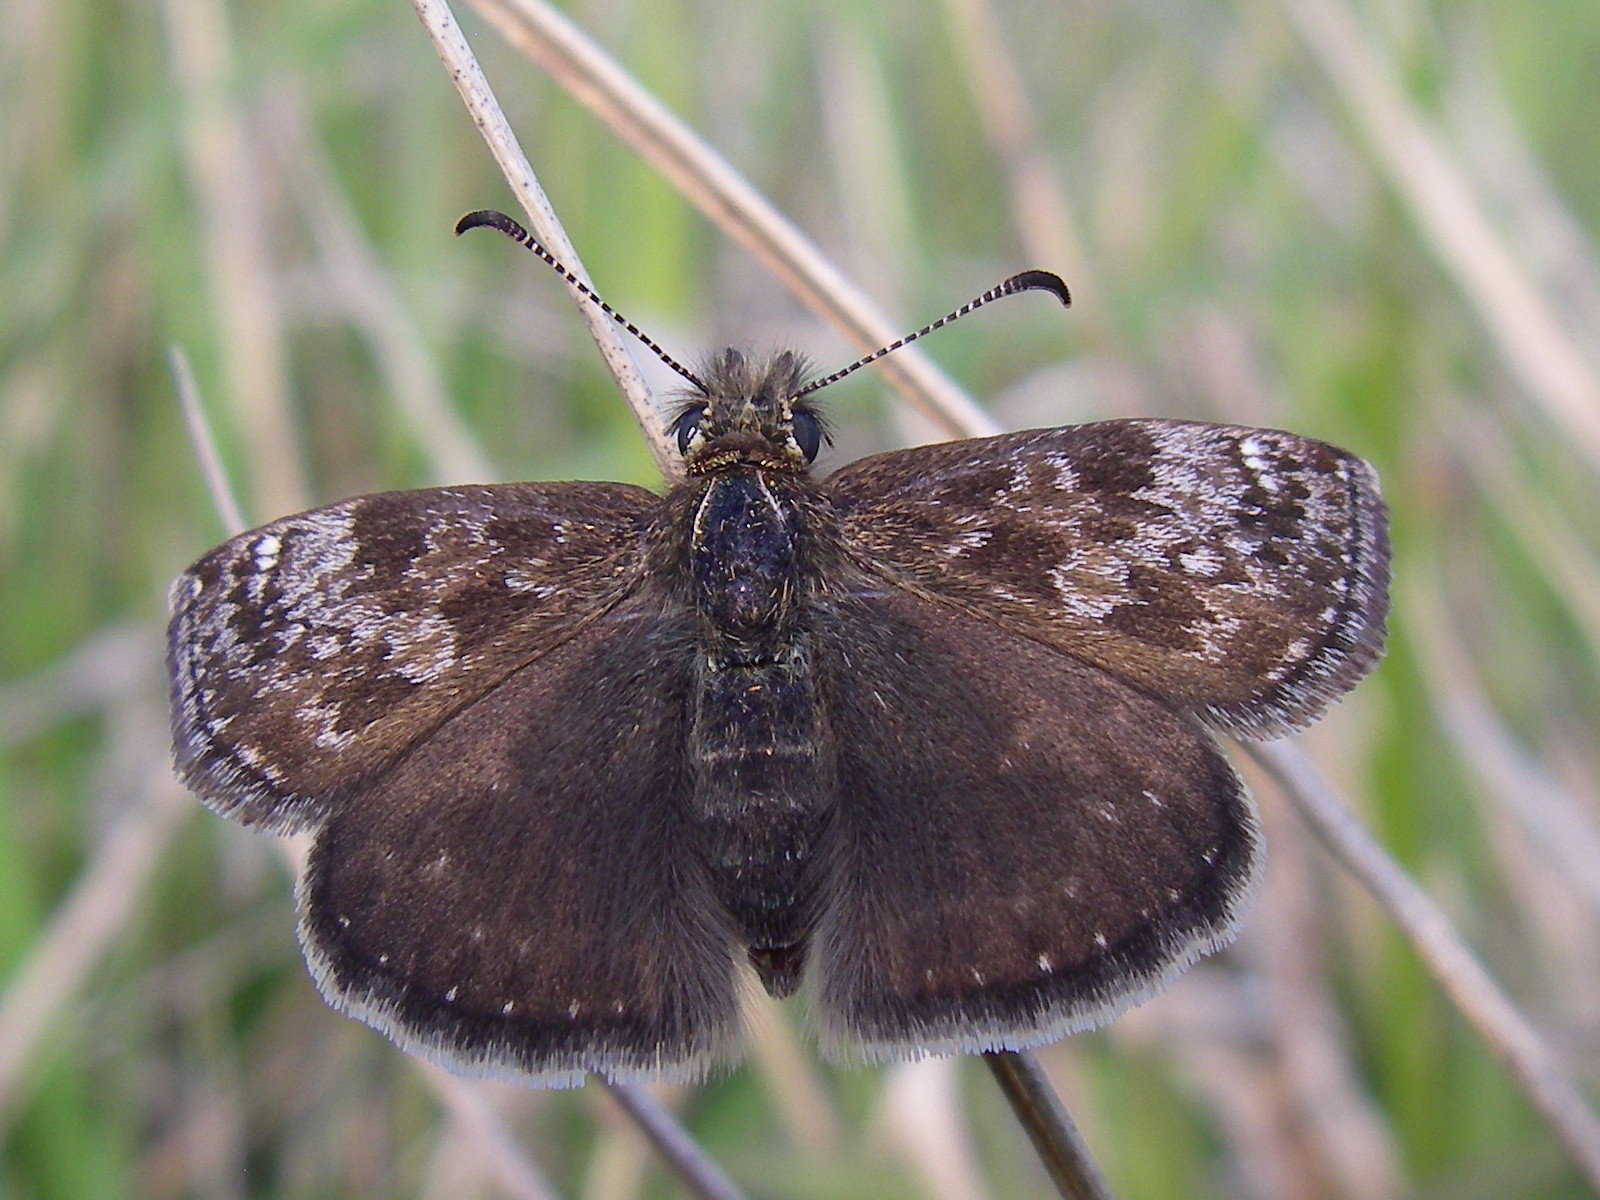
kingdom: Animalia
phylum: Arthropoda
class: Insecta
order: Lepidoptera
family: Hesperiidae
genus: Erynnis
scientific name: Erynnis tages
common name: Dingy skipper
